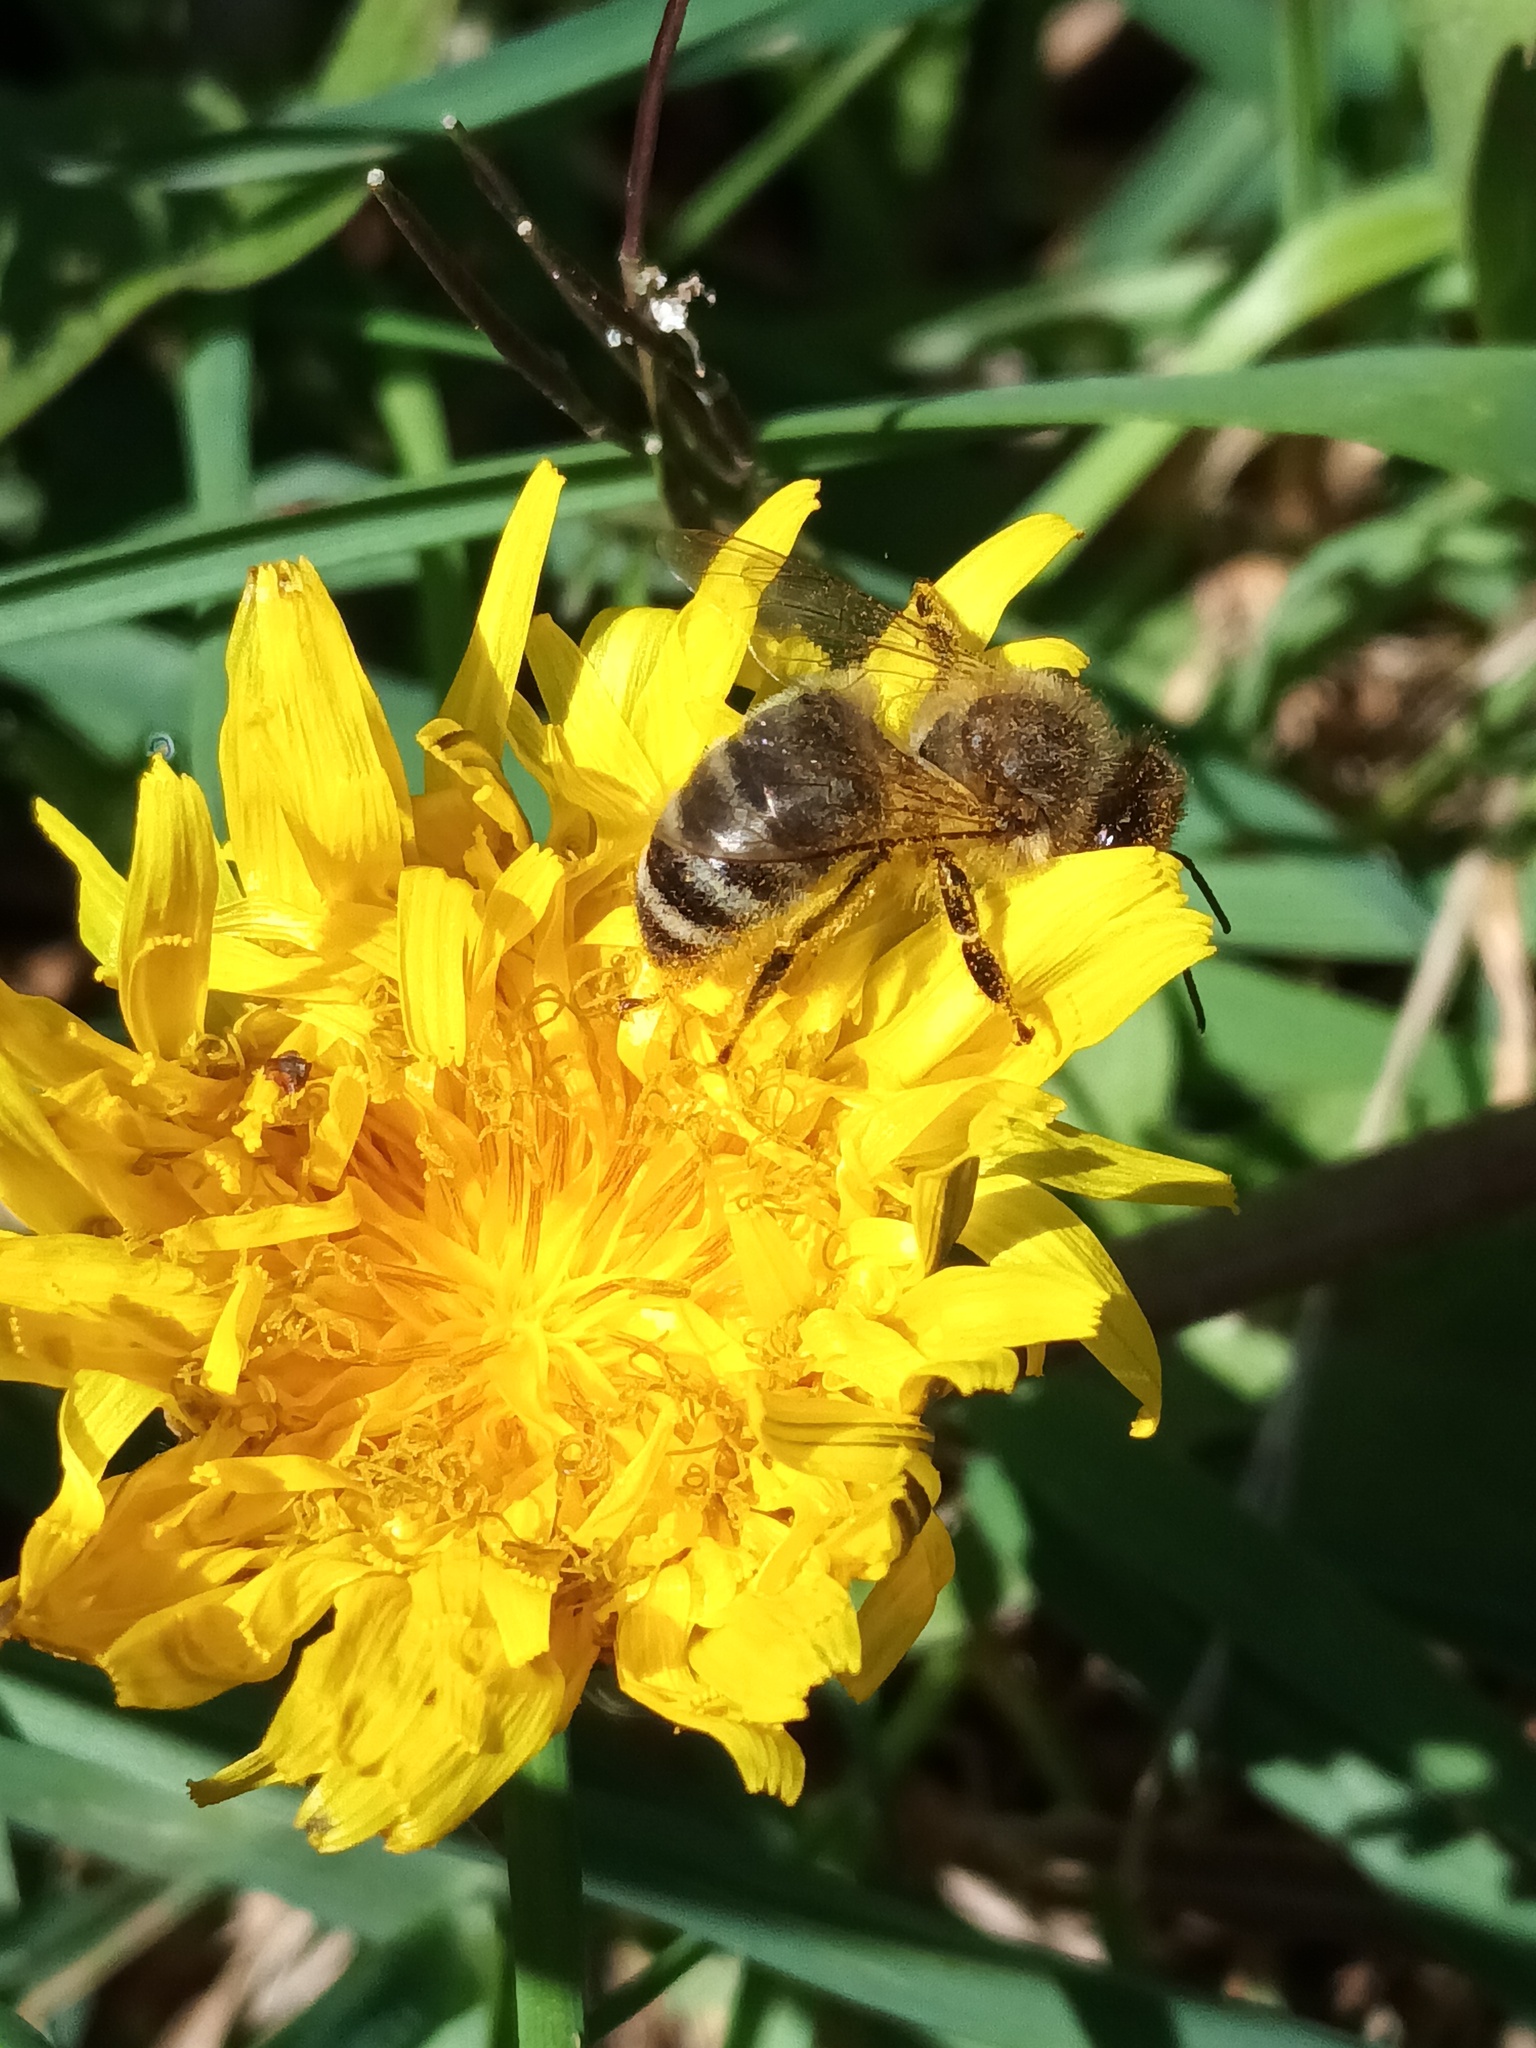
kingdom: Animalia
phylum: Arthropoda
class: Insecta
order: Hymenoptera
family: Apidae
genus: Apis
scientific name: Apis mellifera
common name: Honey bee
